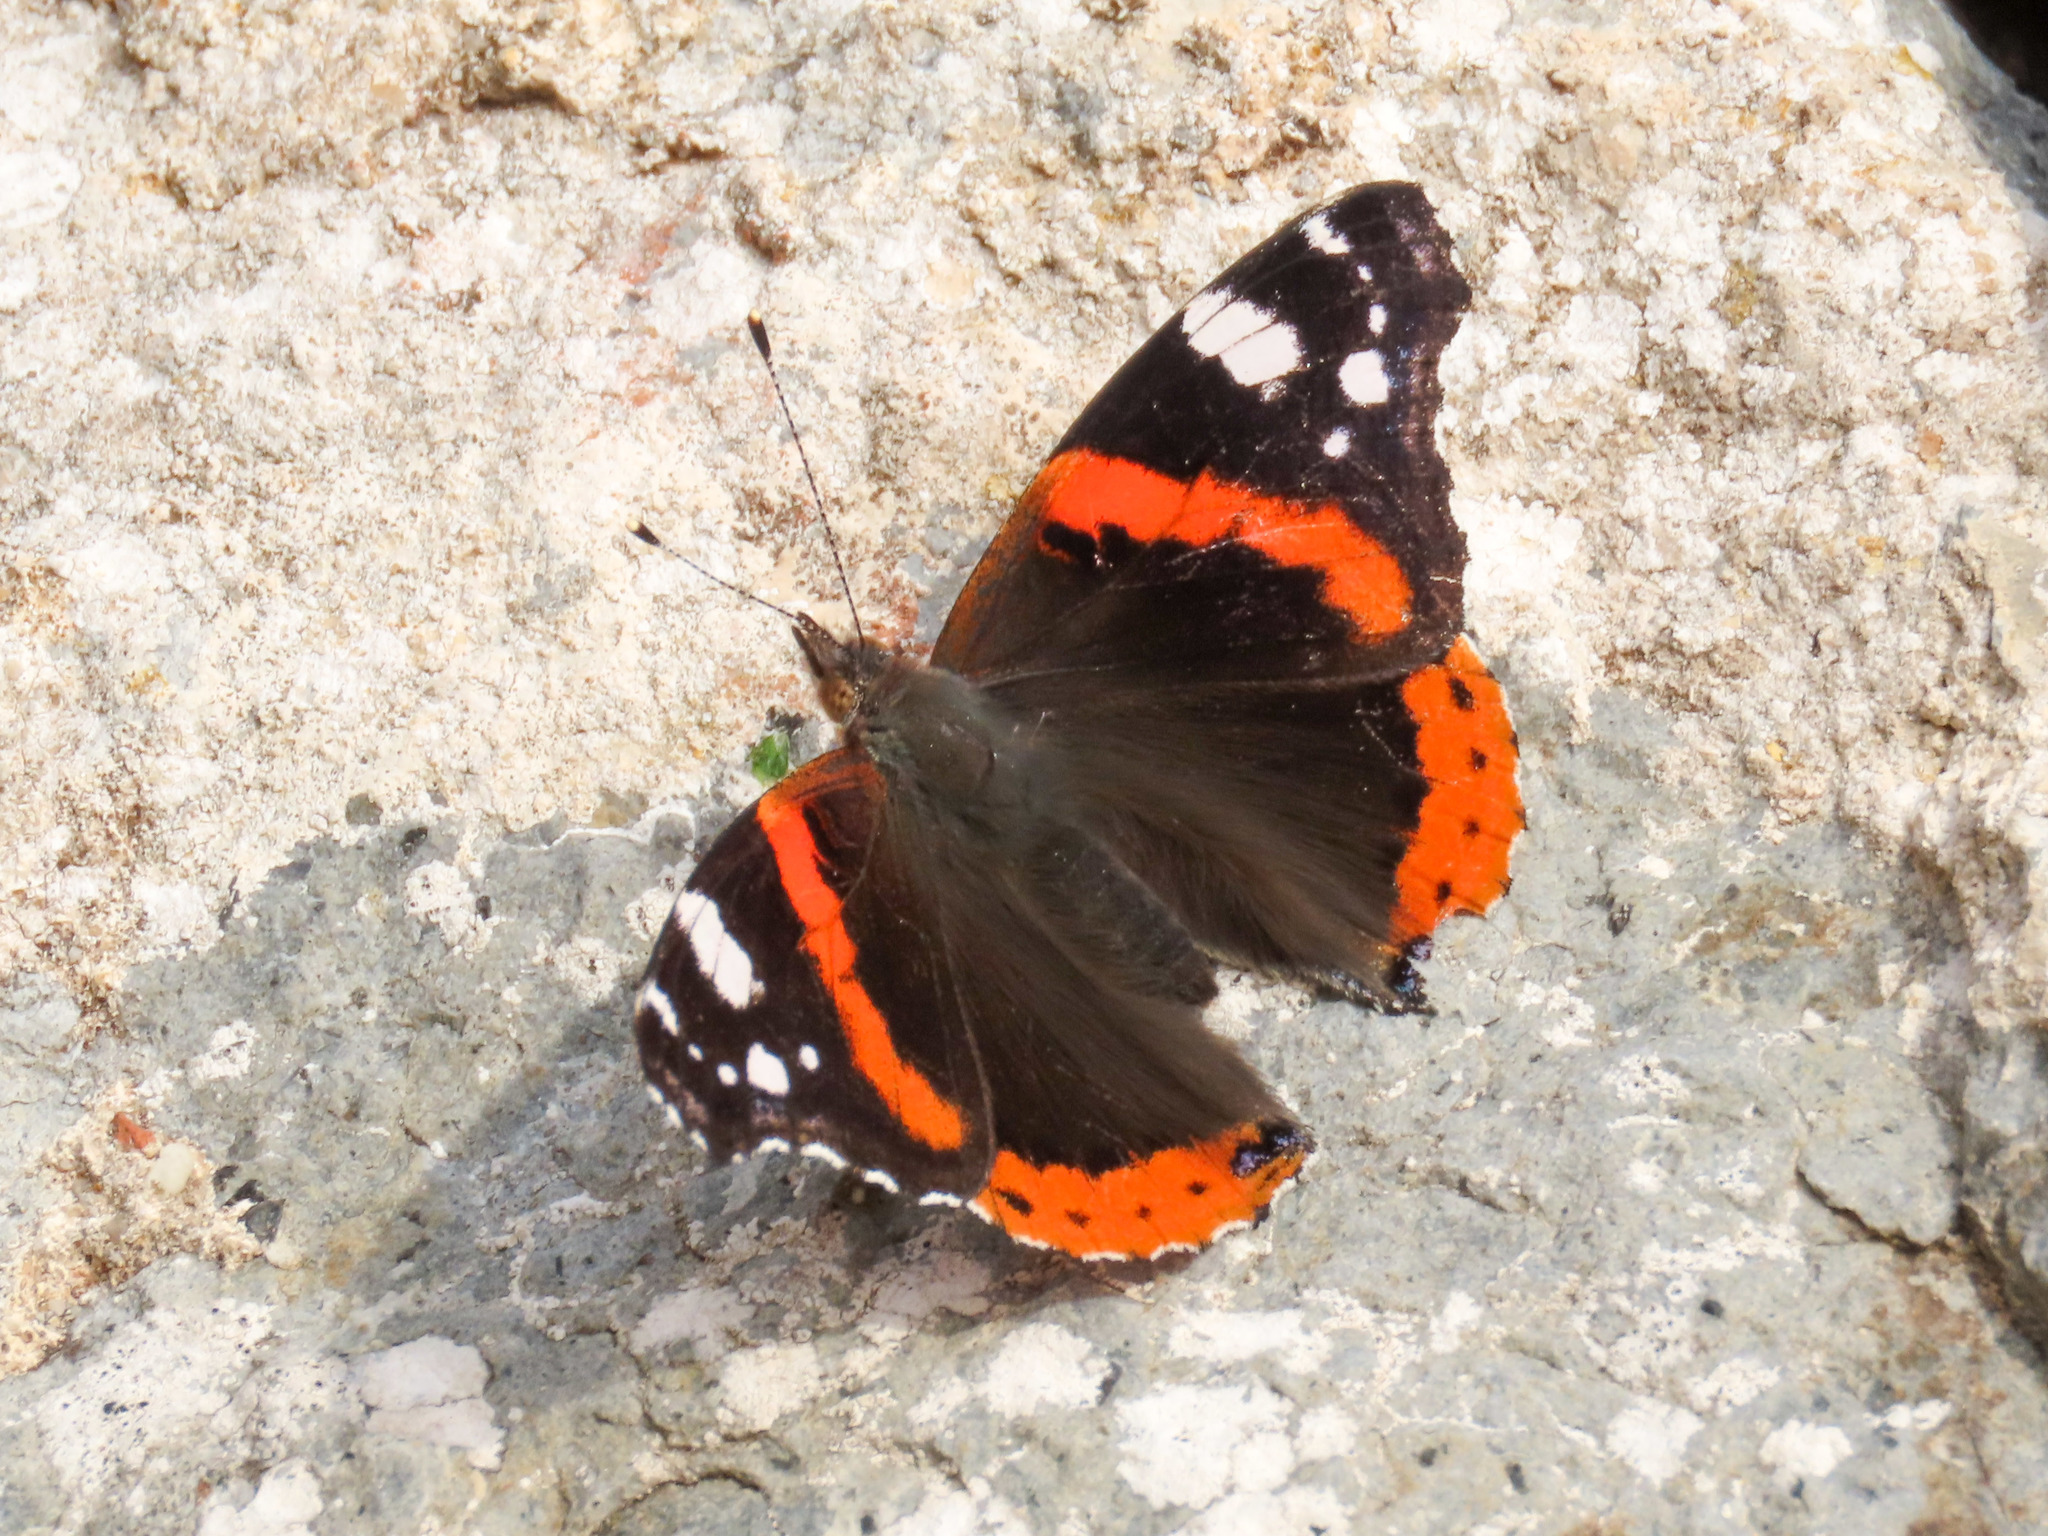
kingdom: Animalia
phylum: Arthropoda
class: Insecta
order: Lepidoptera
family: Nymphalidae
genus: Vanessa
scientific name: Vanessa atalanta
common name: Red admiral
